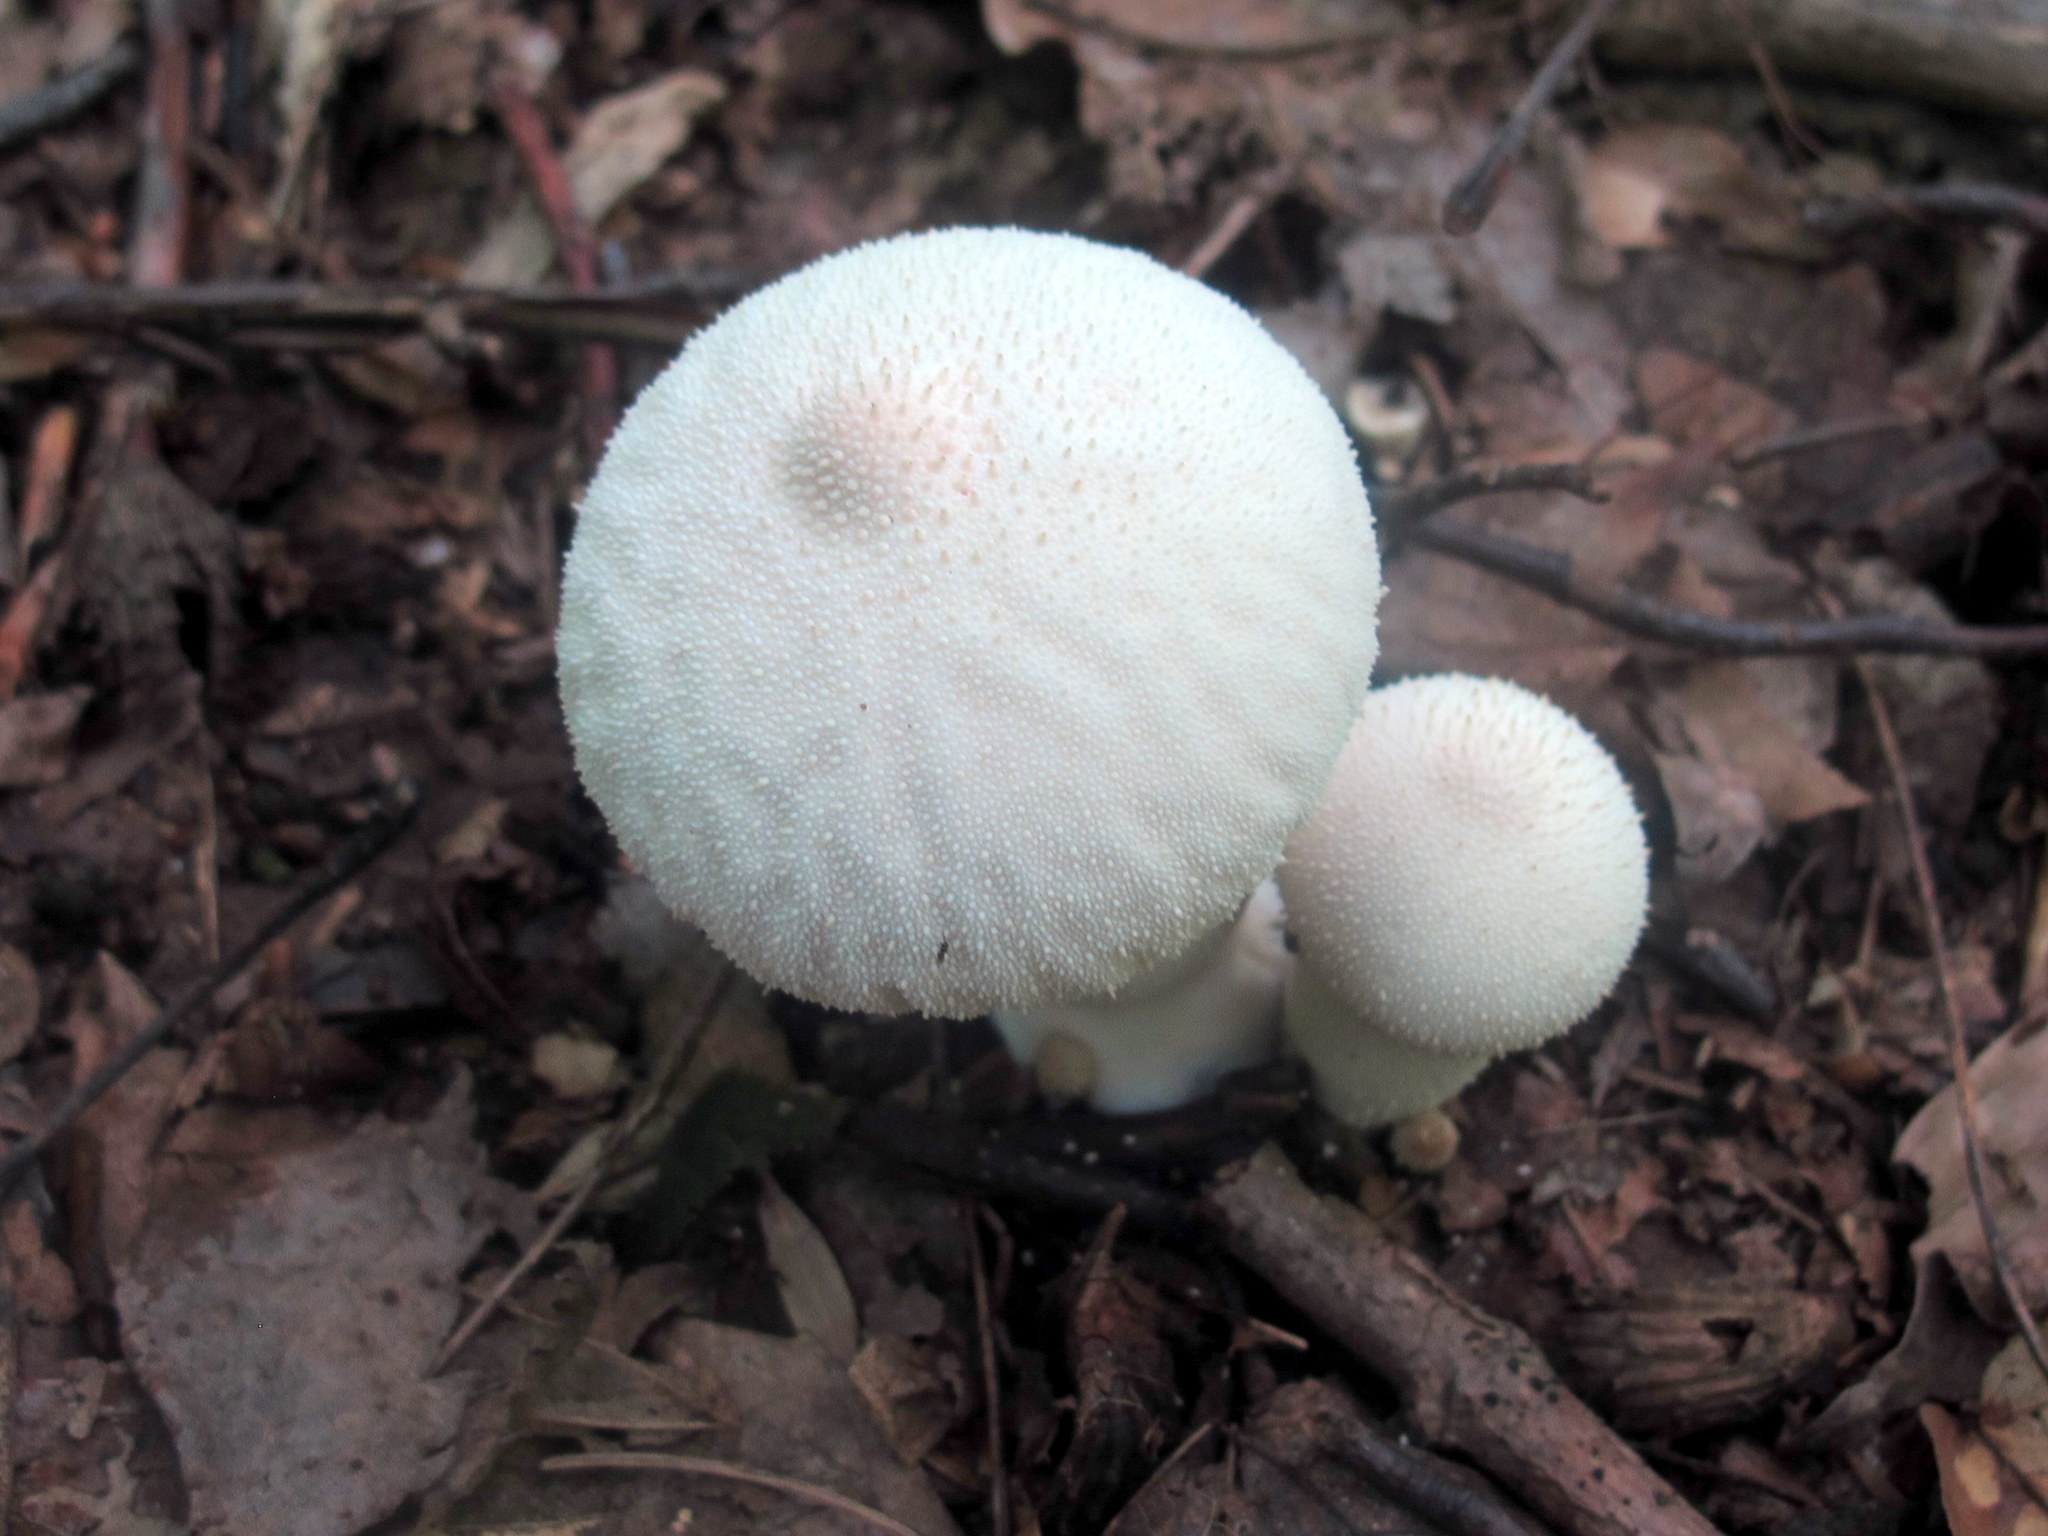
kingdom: Fungi
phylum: Basidiomycota
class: Agaricomycetes
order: Agaricales
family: Lycoperdaceae
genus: Lycoperdon
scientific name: Lycoperdon perlatum
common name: Common puffball
